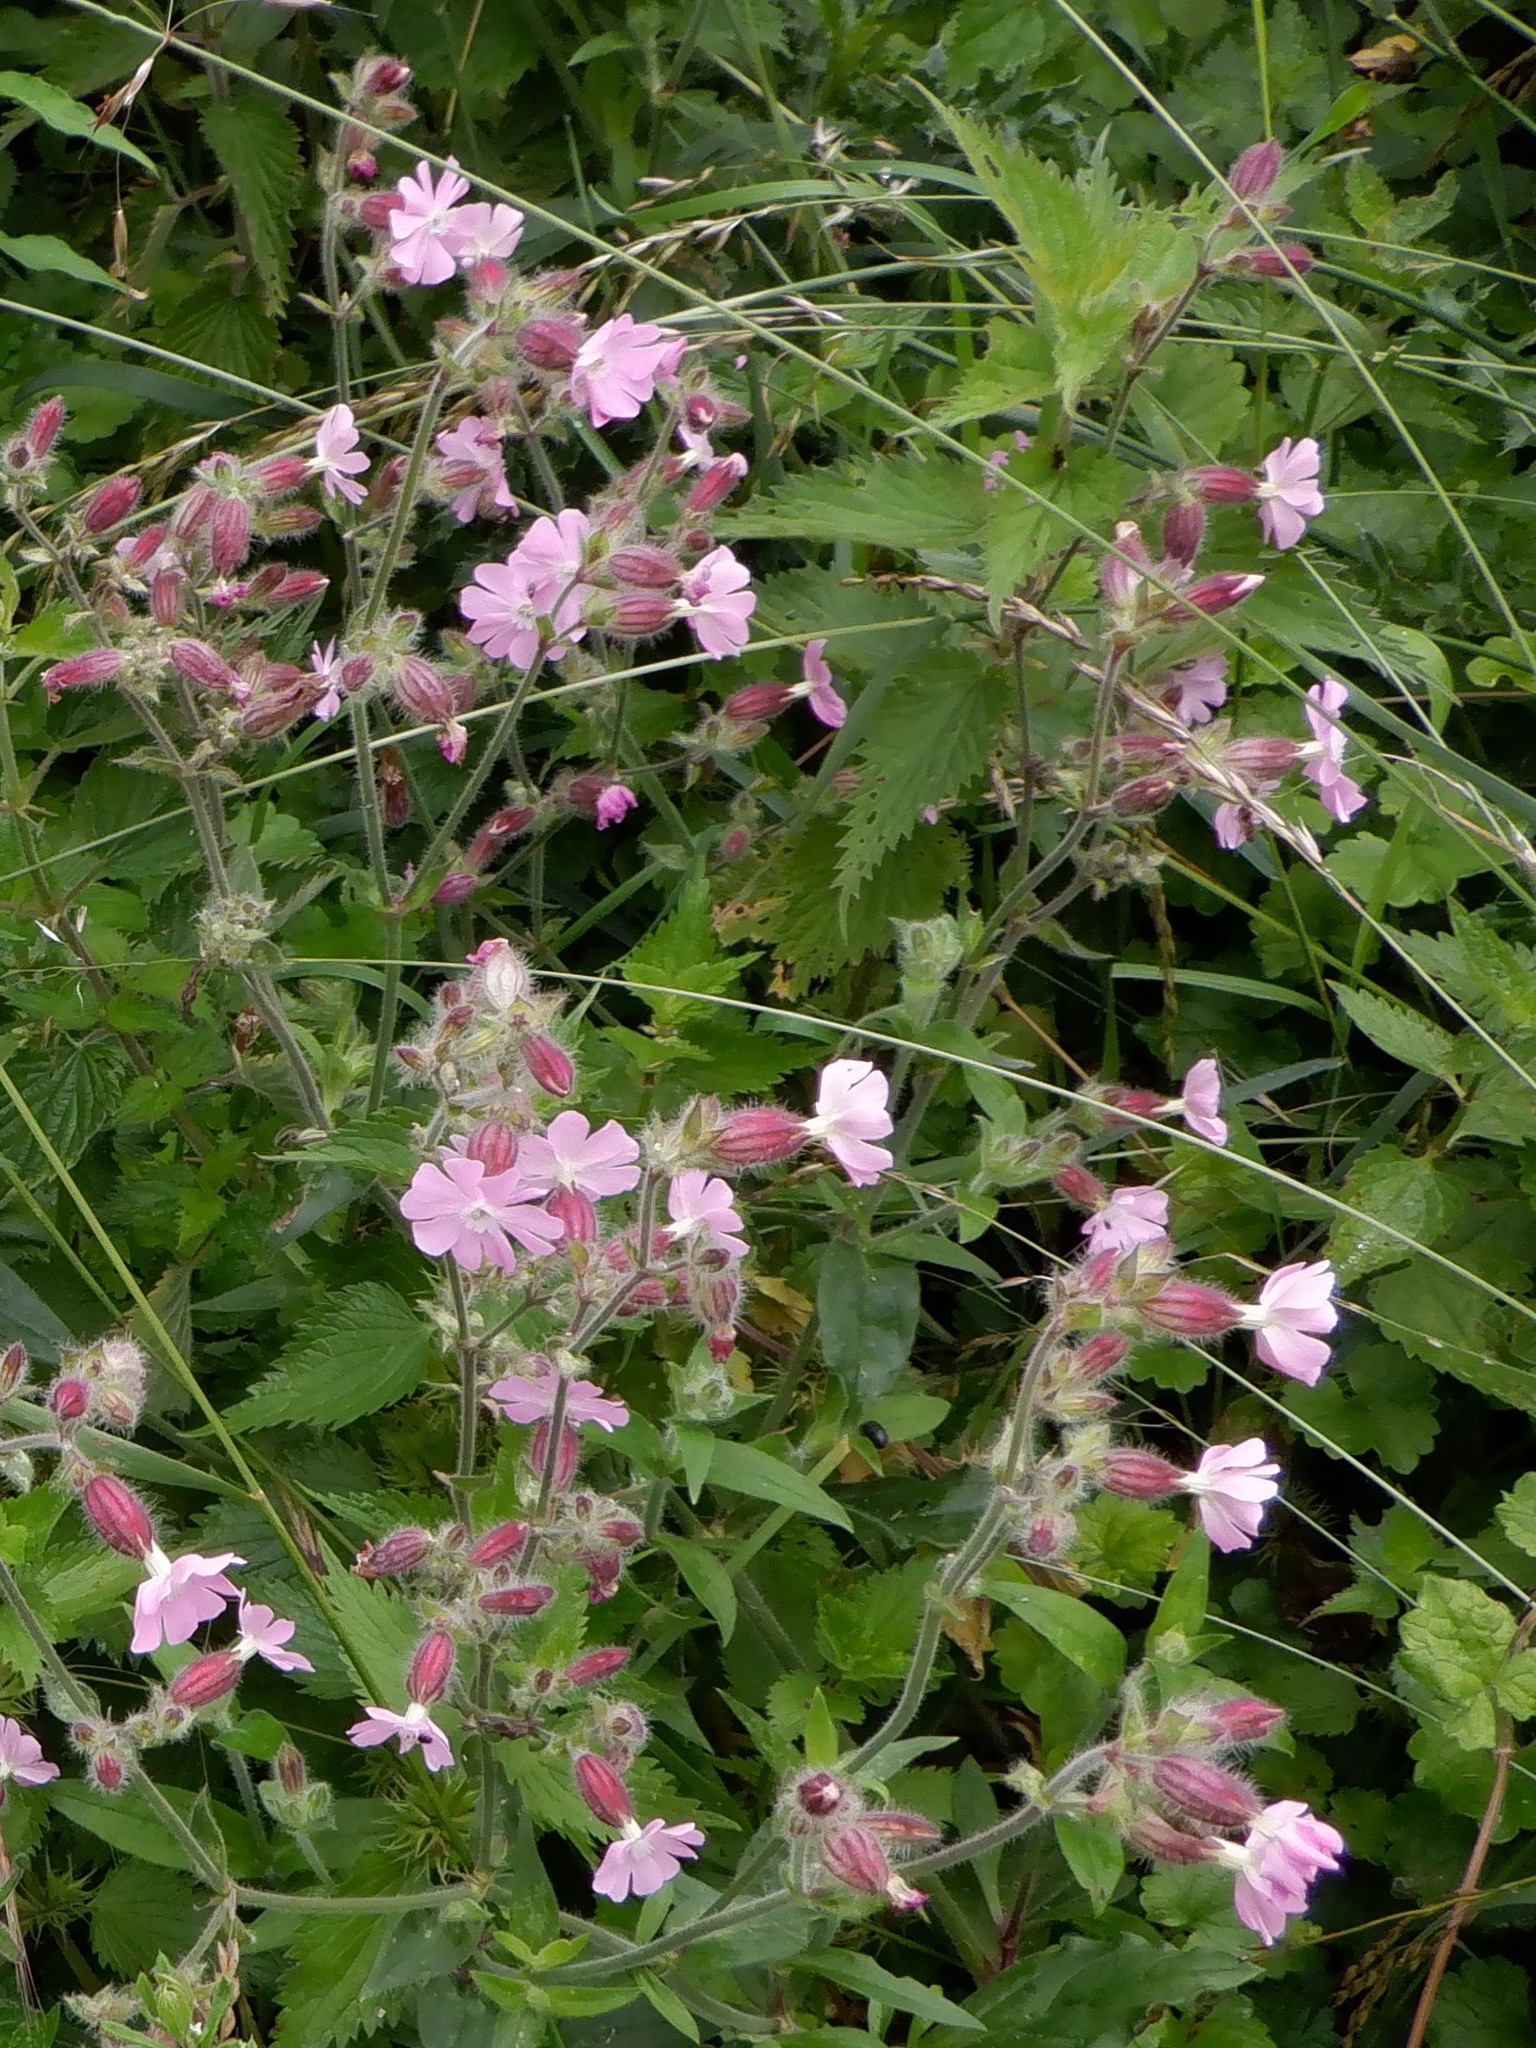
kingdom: Plantae
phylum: Tracheophyta
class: Magnoliopsida
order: Caryophyllales
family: Caryophyllaceae
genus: Silene
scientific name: Silene hampeana
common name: Catchfly
